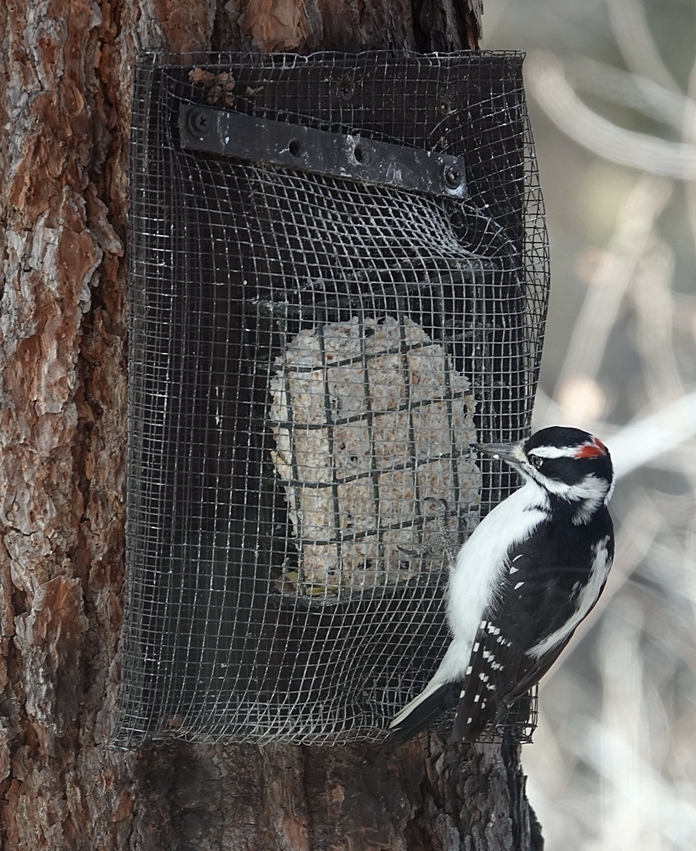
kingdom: Animalia
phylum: Chordata
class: Aves
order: Piciformes
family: Picidae
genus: Leuconotopicus
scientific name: Leuconotopicus villosus
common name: Hairy woodpecker
